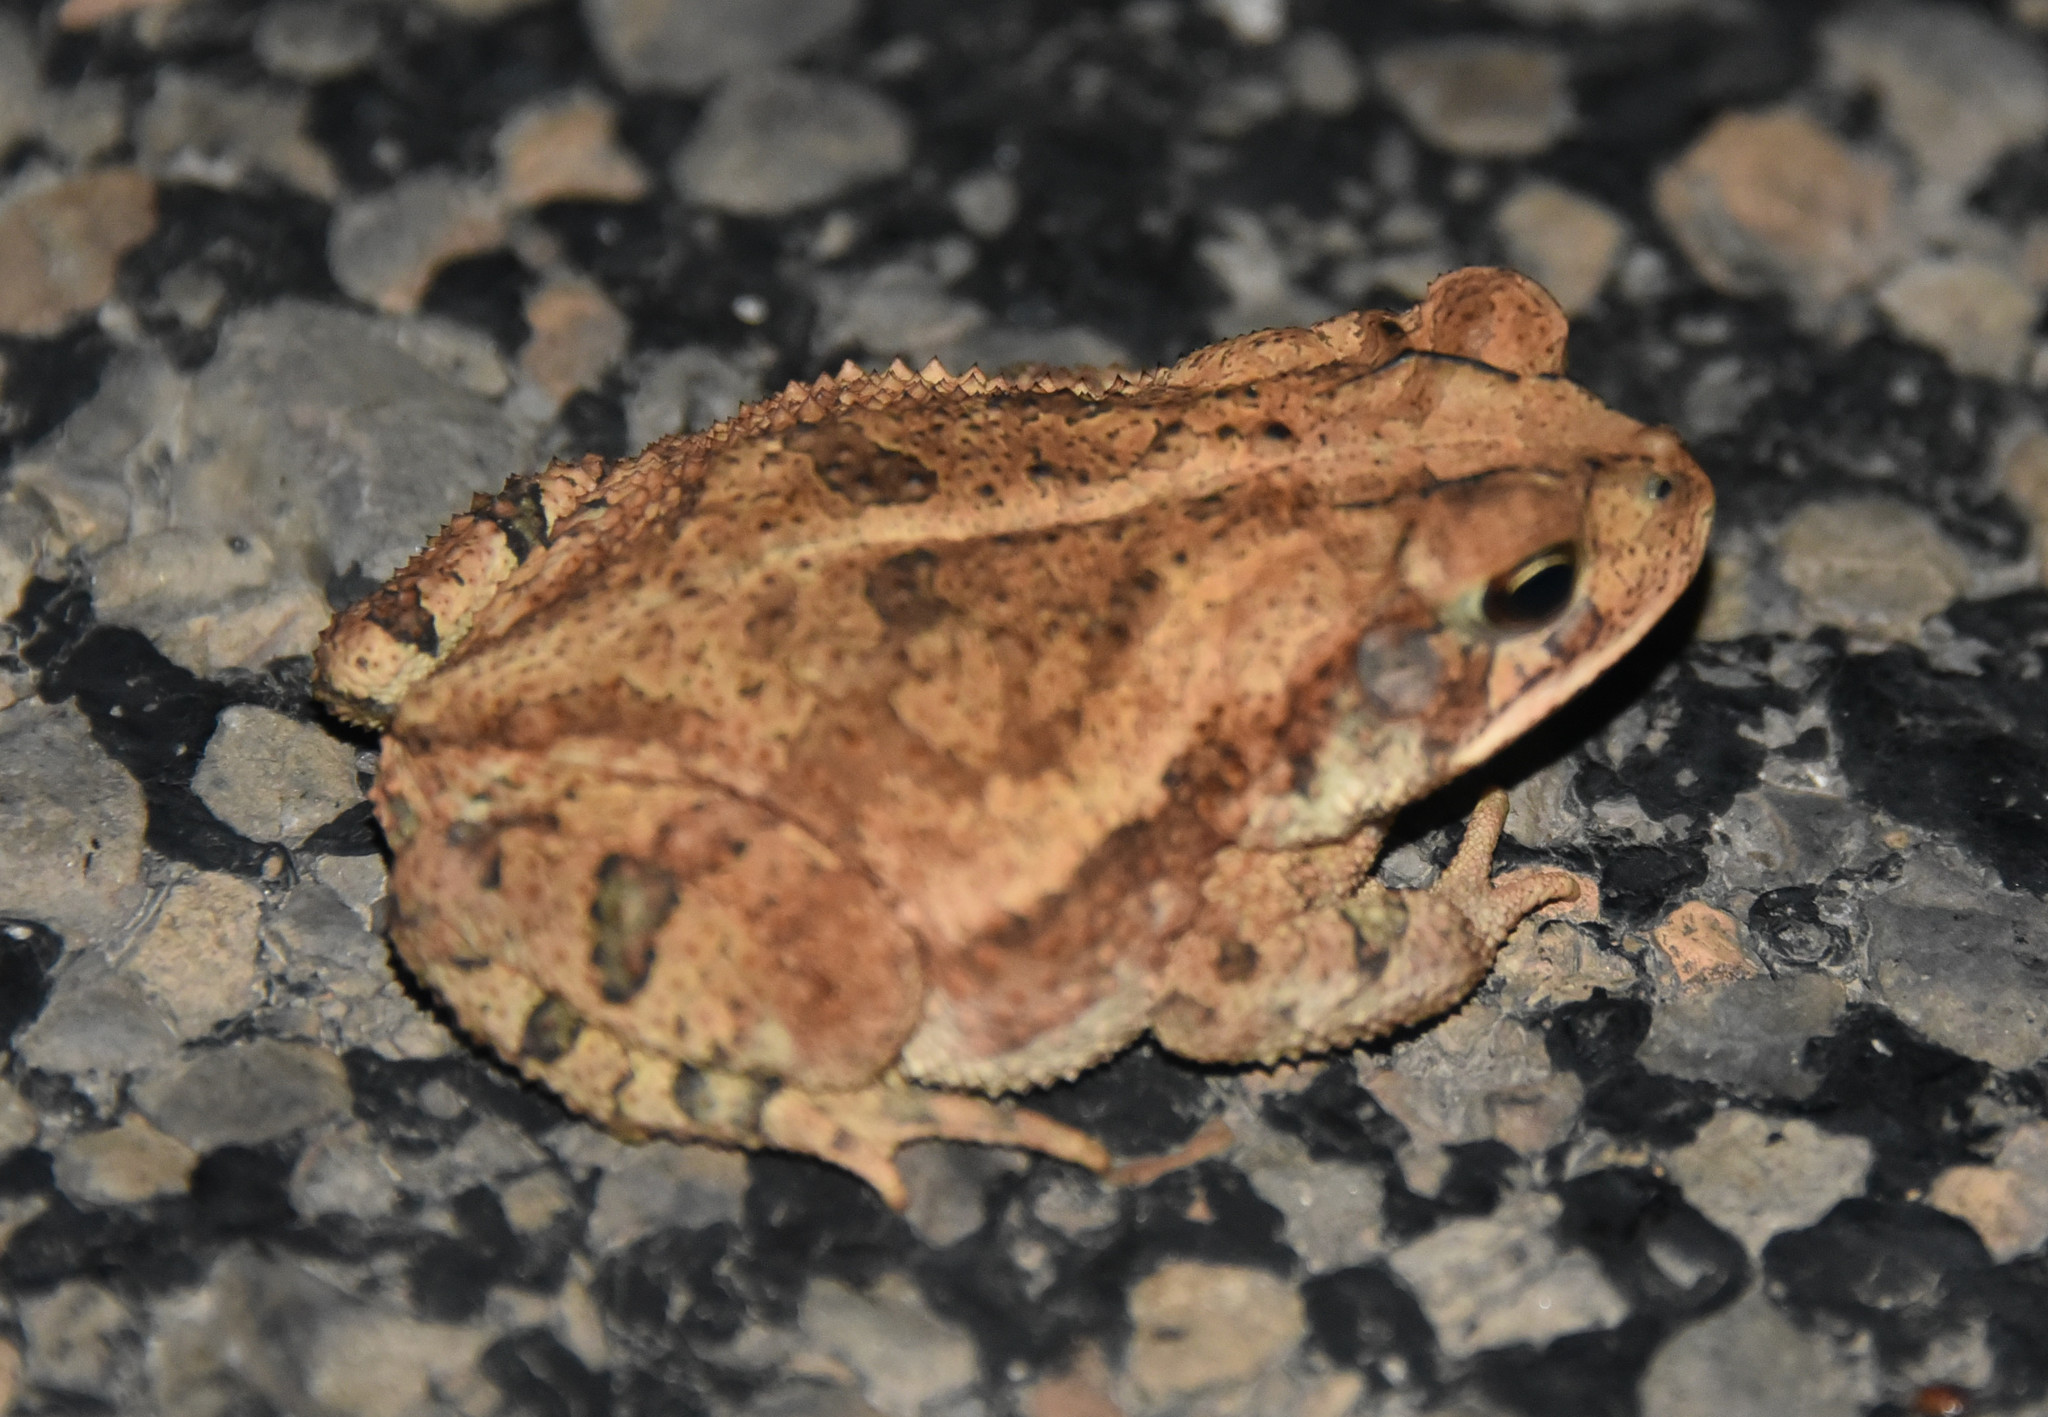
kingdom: Animalia
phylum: Chordata
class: Amphibia
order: Anura
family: Bufonidae
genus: Incilius
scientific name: Incilius nebulifer
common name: Gulf coast toad
